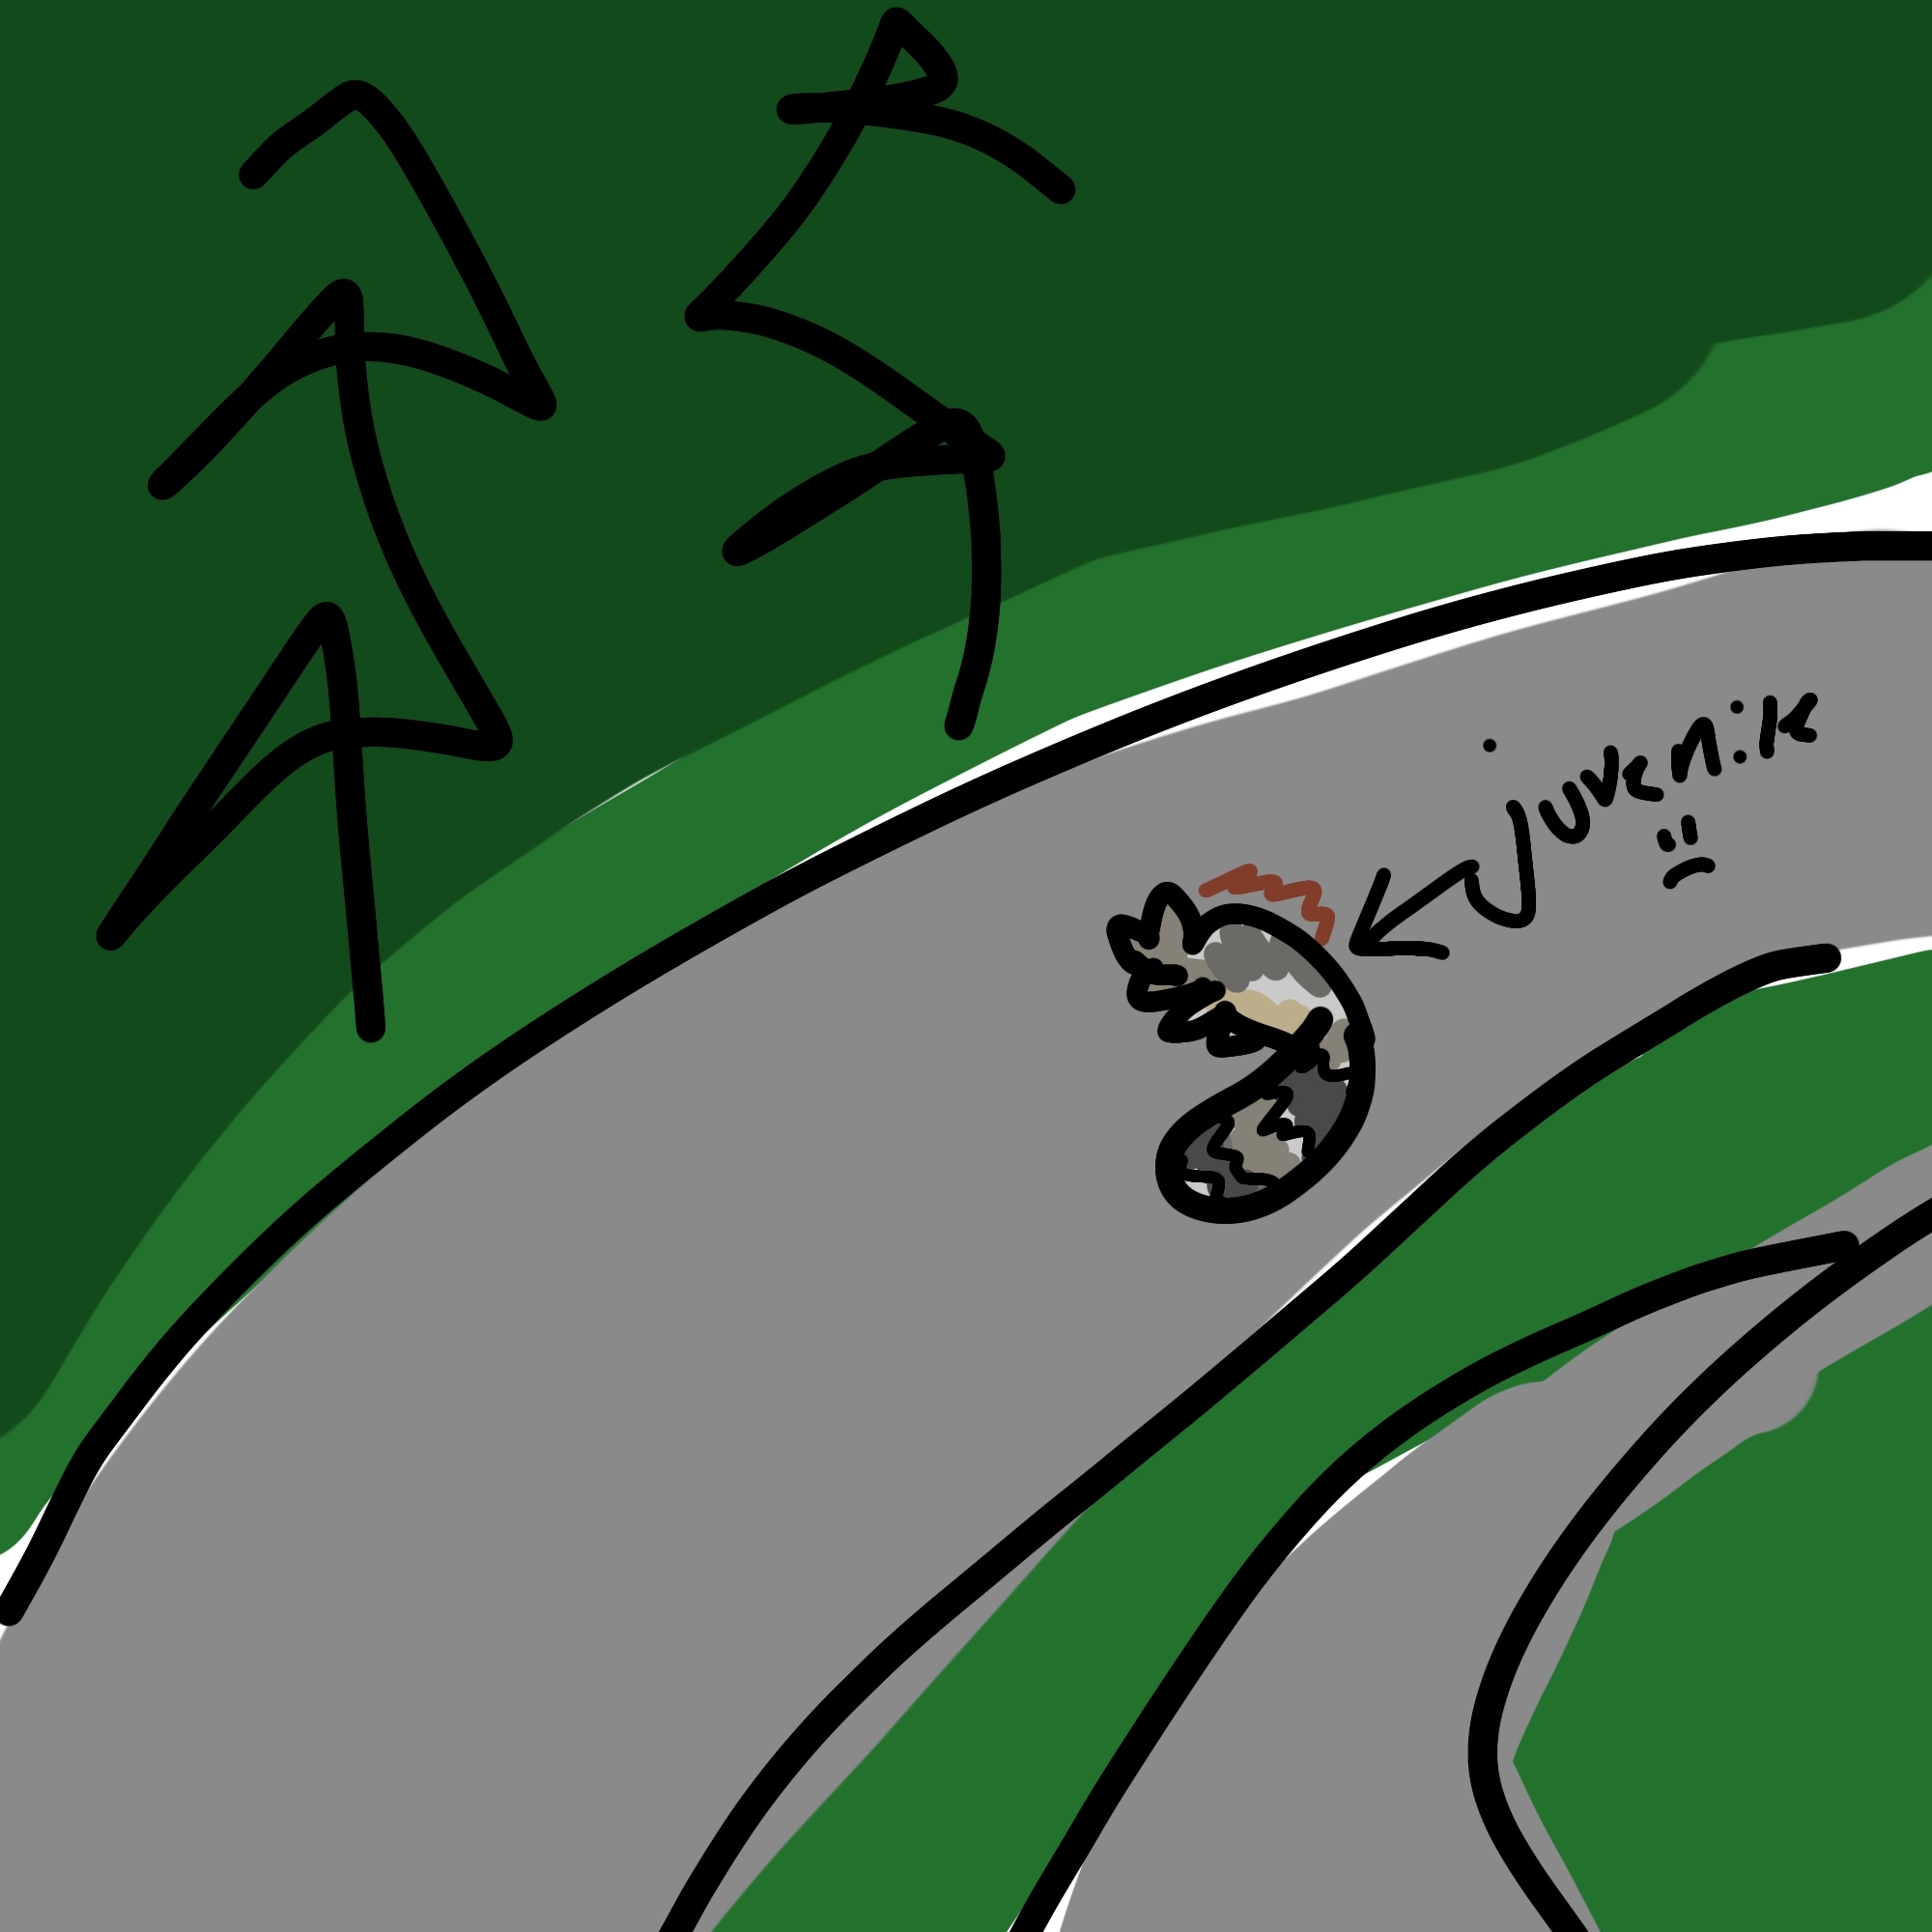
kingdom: Animalia
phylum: Chordata
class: Mammalia
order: Carnivora
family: Procyonidae
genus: Procyon
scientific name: Procyon lotor
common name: Raccoon
